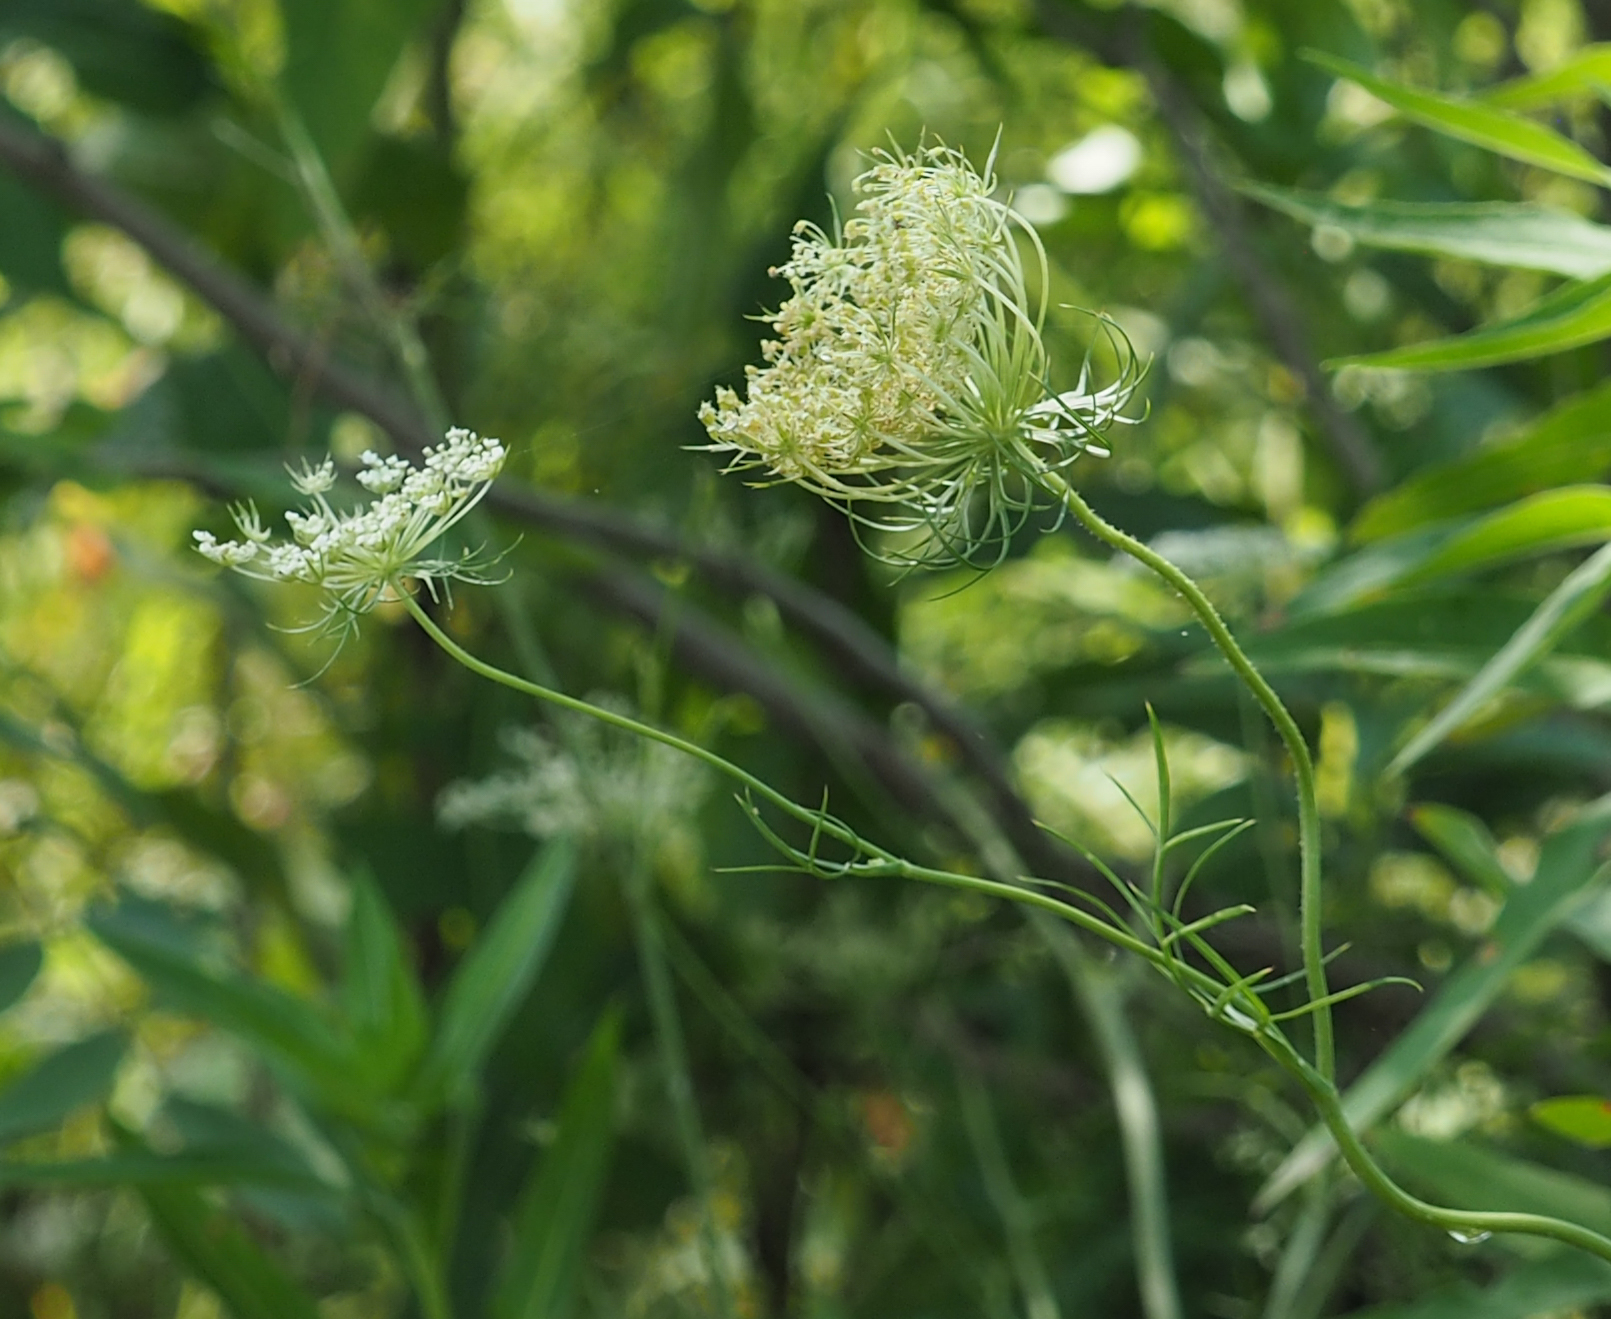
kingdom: Plantae
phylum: Tracheophyta
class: Magnoliopsida
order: Apiales
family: Apiaceae
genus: Daucus
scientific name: Daucus carota
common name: Wild carrot
